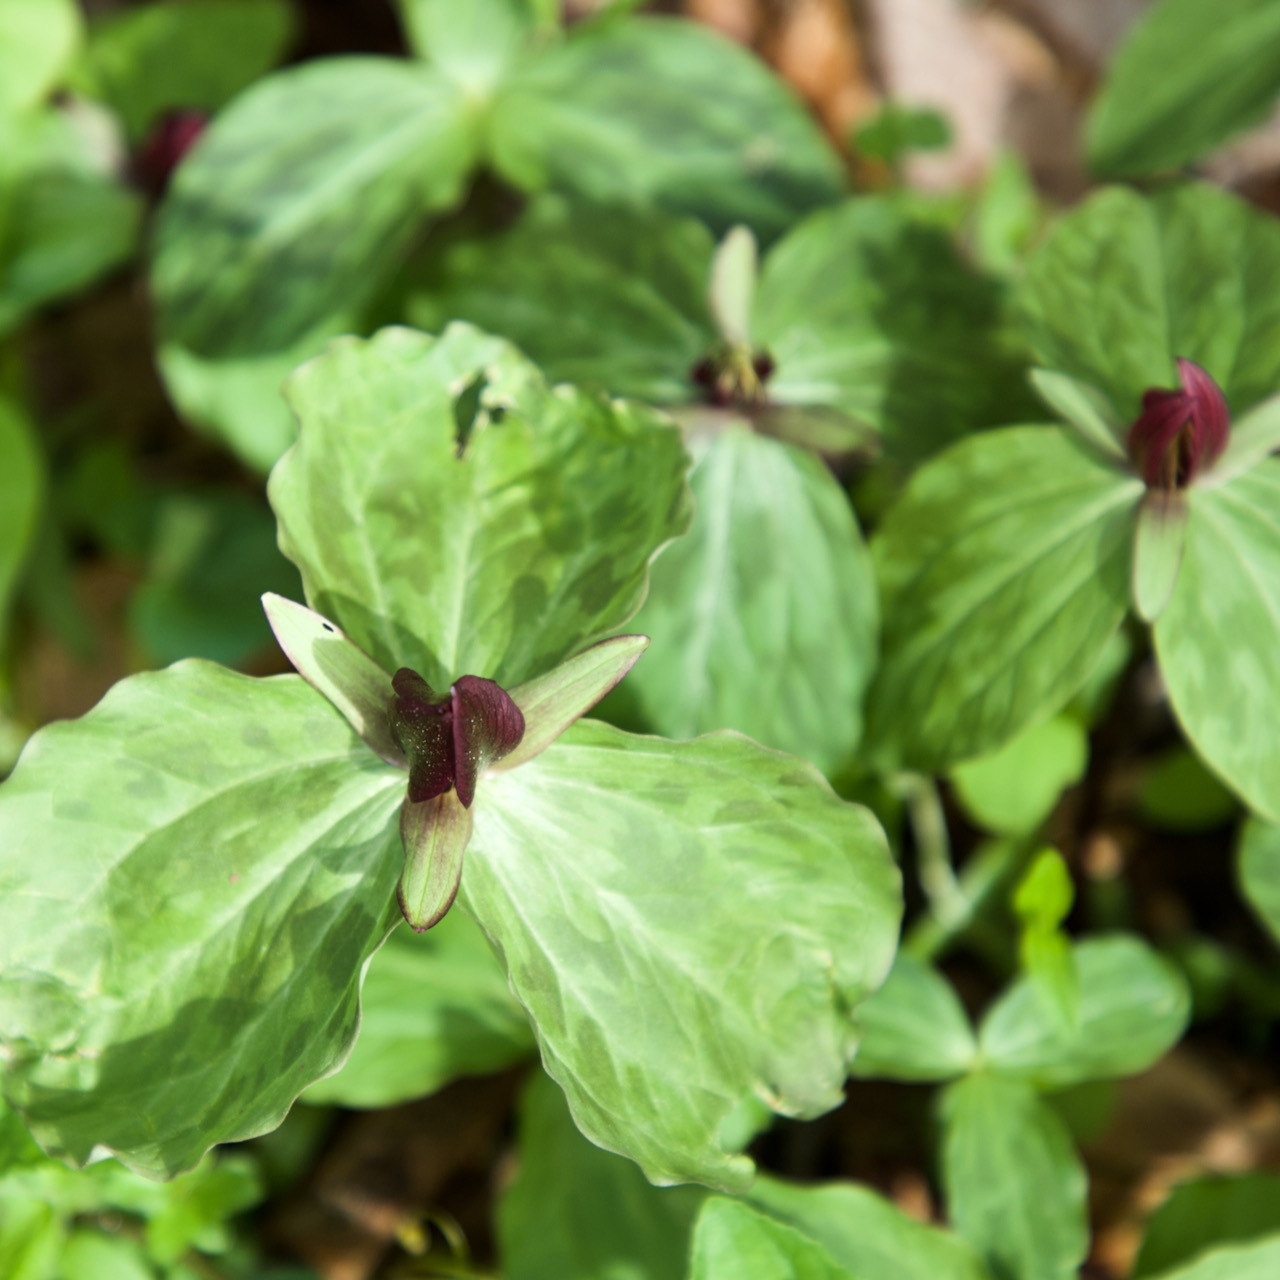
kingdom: Plantae
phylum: Tracheophyta
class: Liliopsida
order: Liliales
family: Melanthiaceae
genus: Trillium
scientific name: Trillium sessile
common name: Sessile trillium
